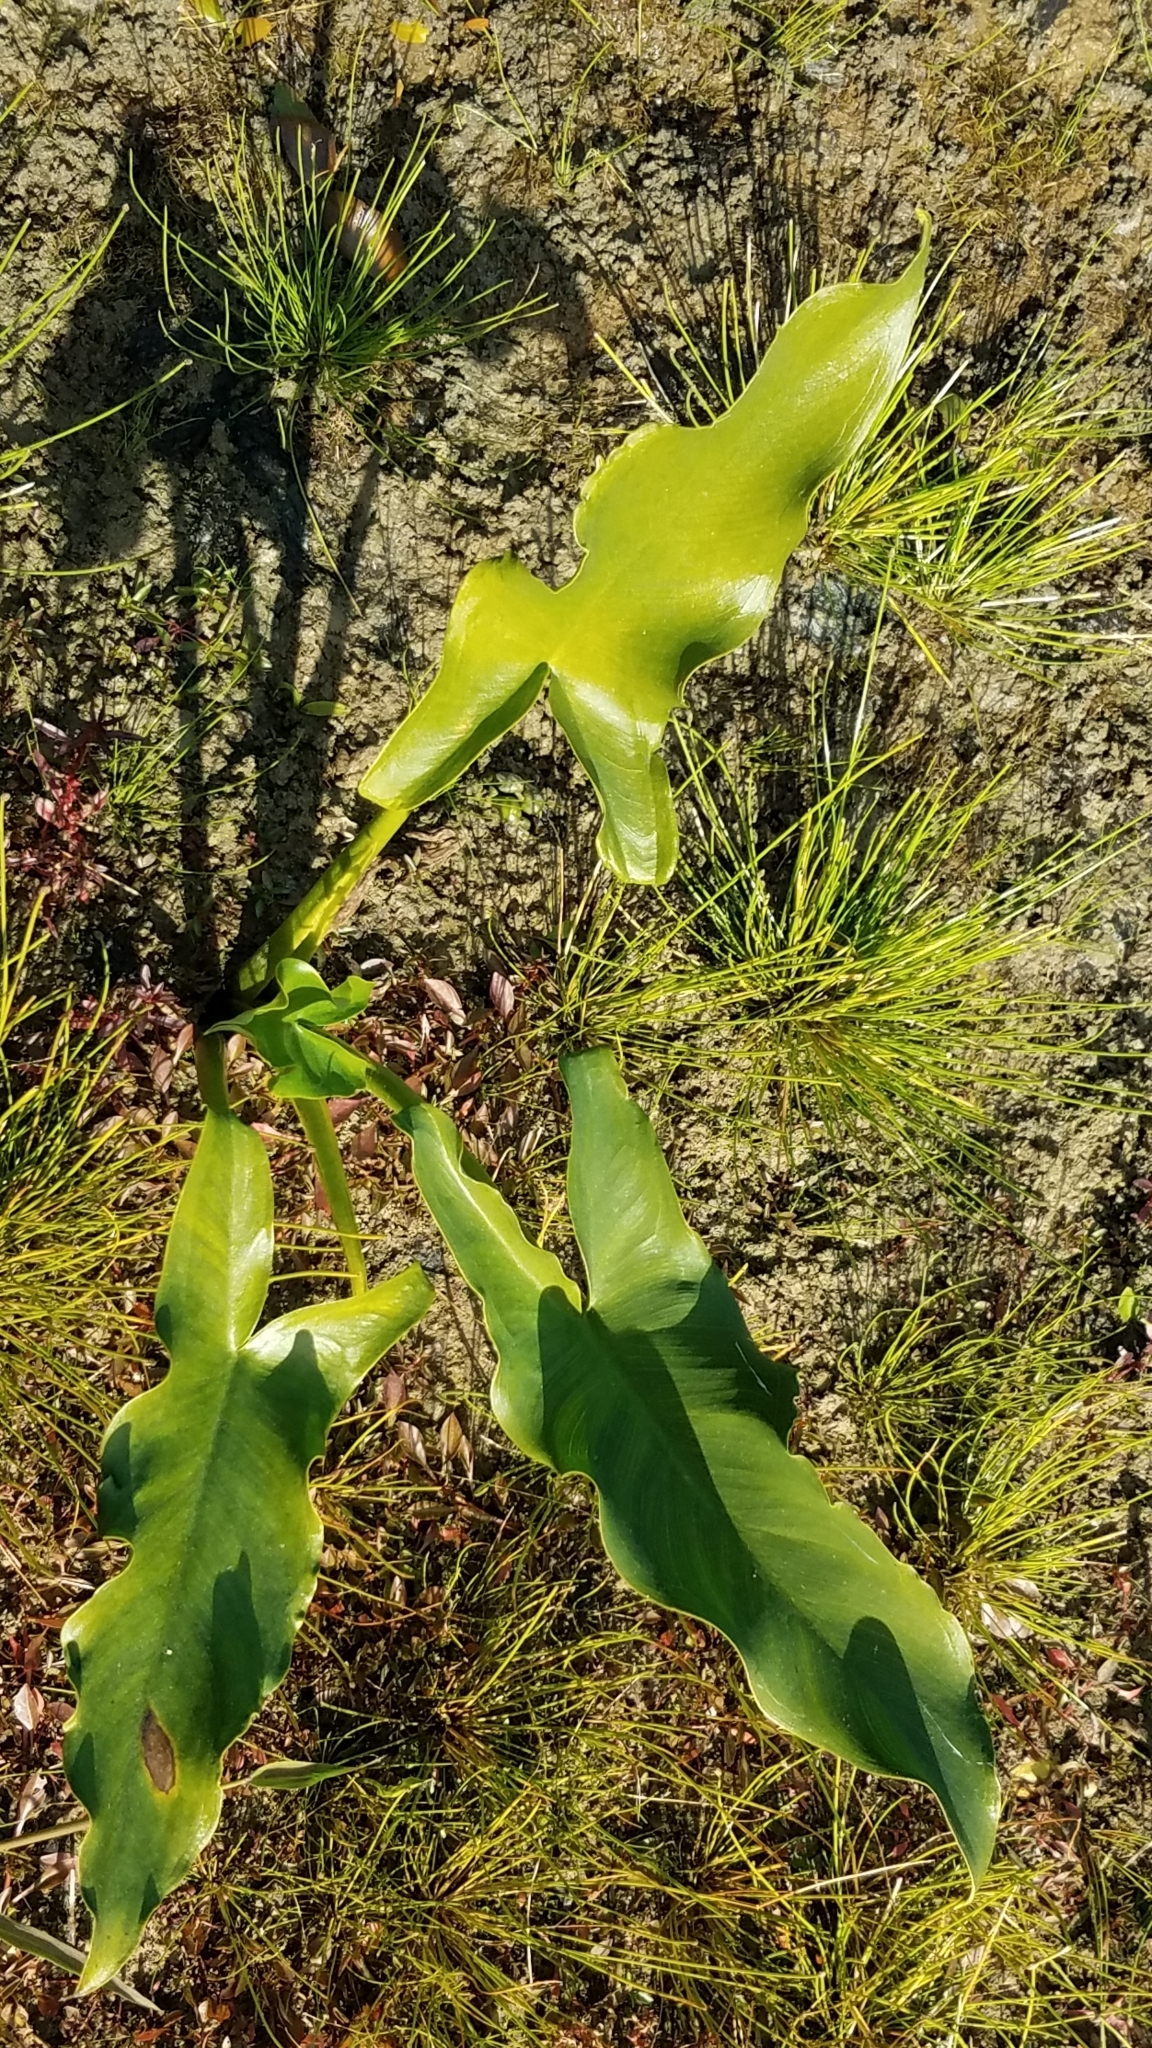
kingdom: Plantae
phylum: Tracheophyta
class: Liliopsida
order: Alismatales
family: Araceae
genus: Peltandra
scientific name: Peltandra virginica
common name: Arrow arum
